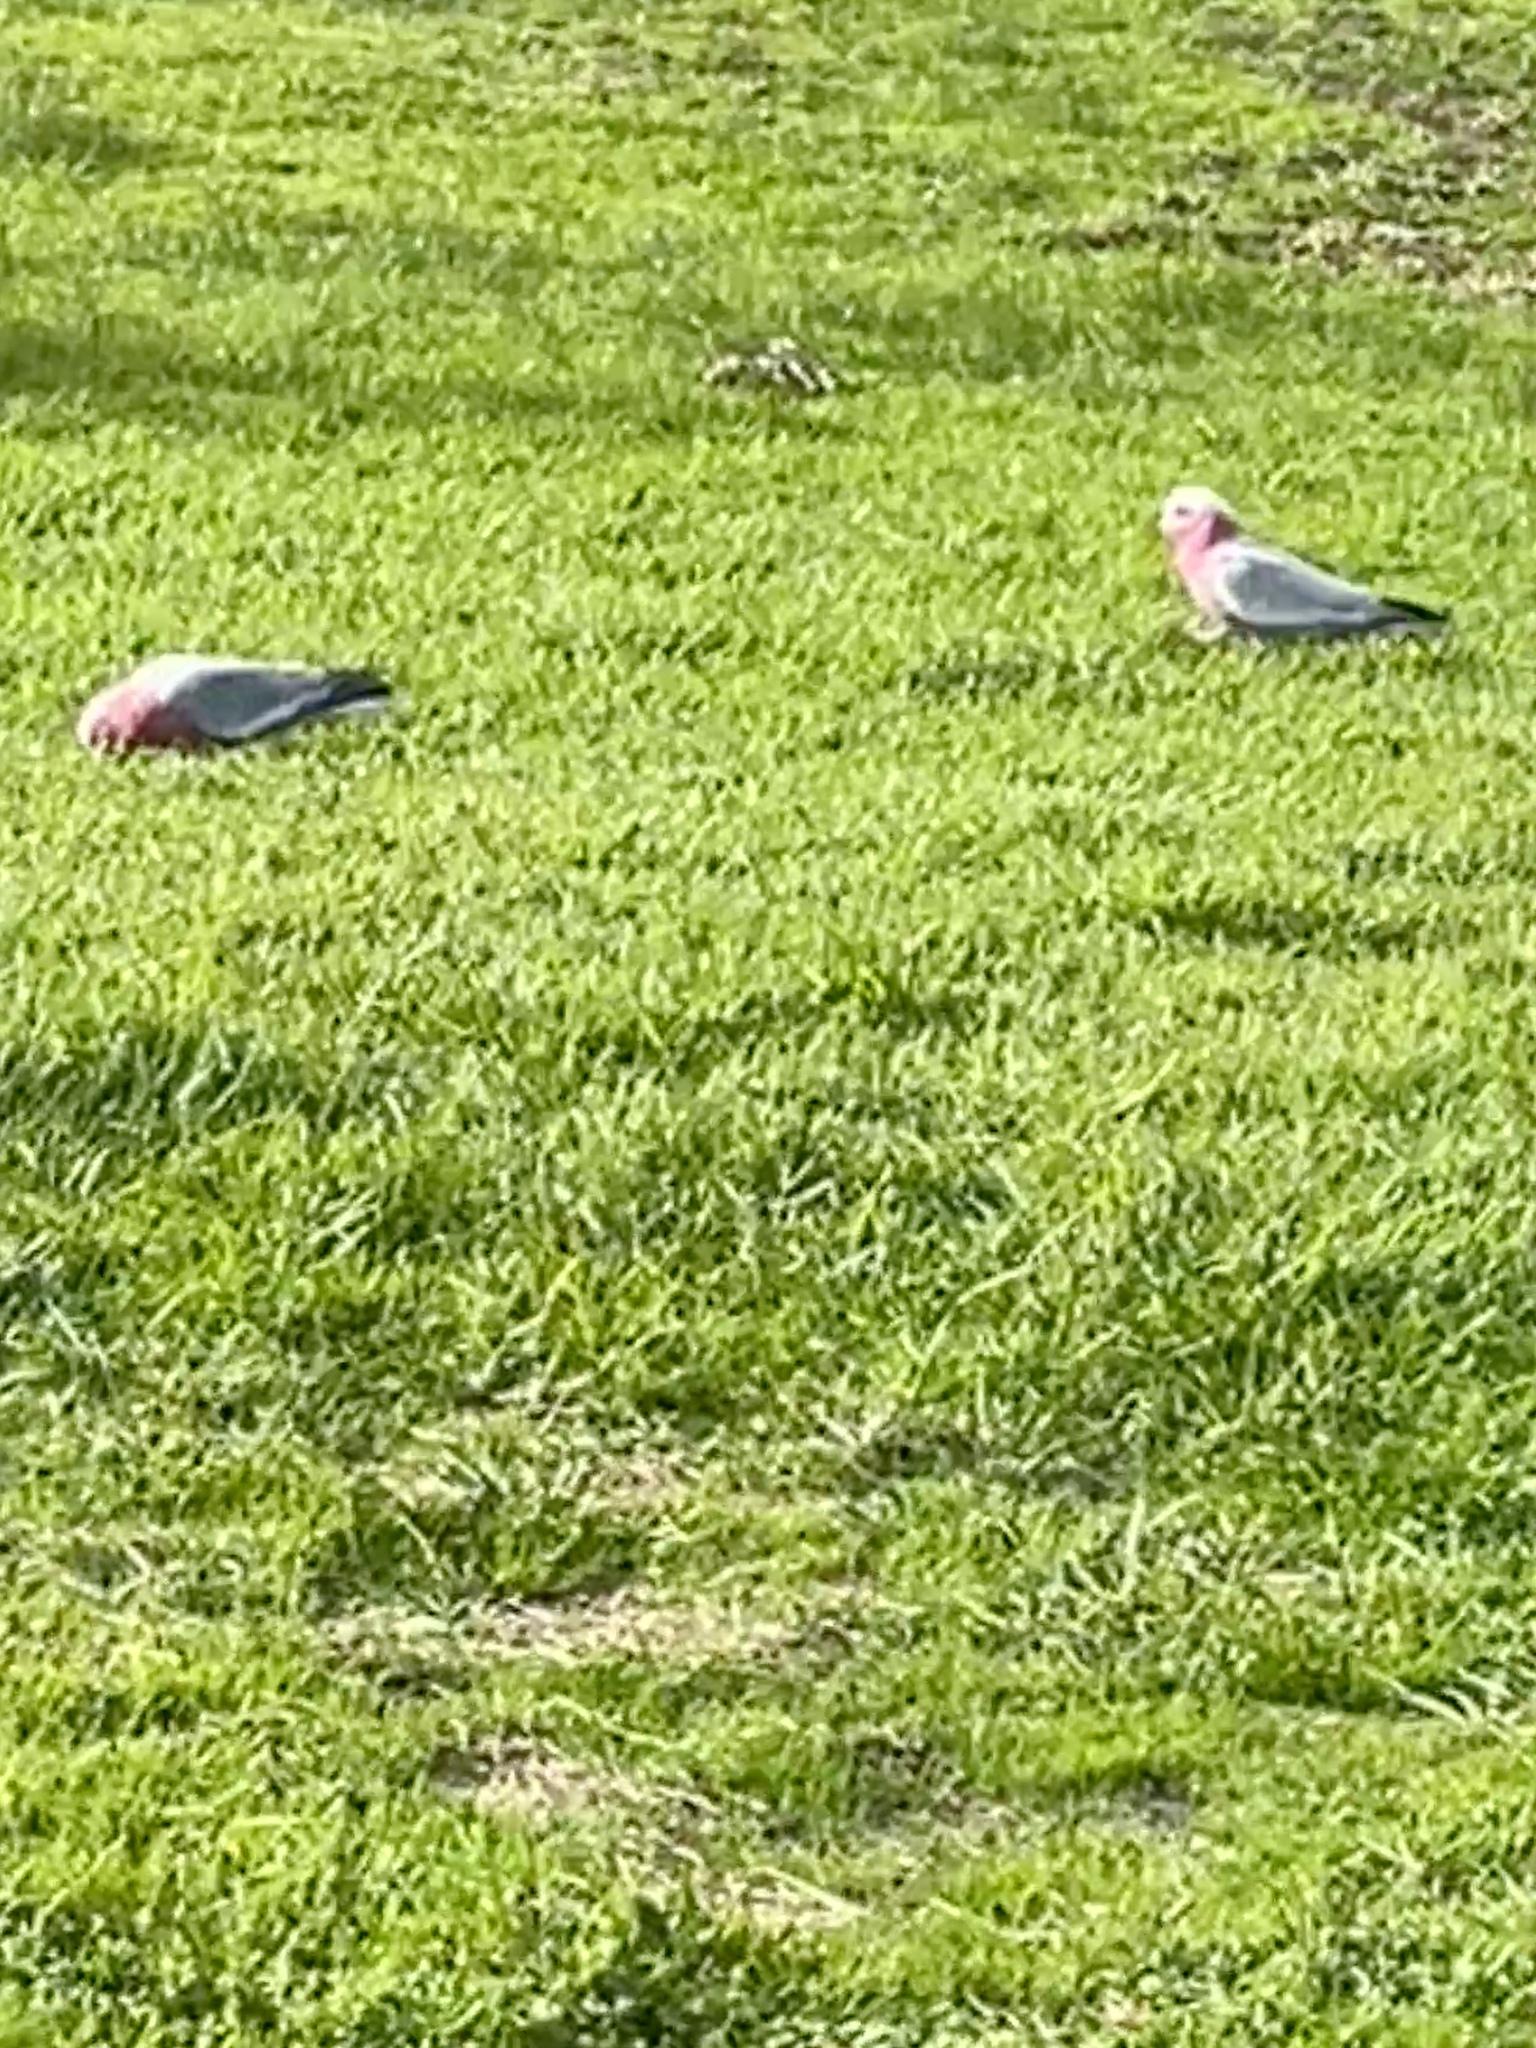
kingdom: Animalia
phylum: Chordata
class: Aves
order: Psittaciformes
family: Psittacidae
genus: Eolophus
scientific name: Eolophus roseicapilla
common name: Galah
